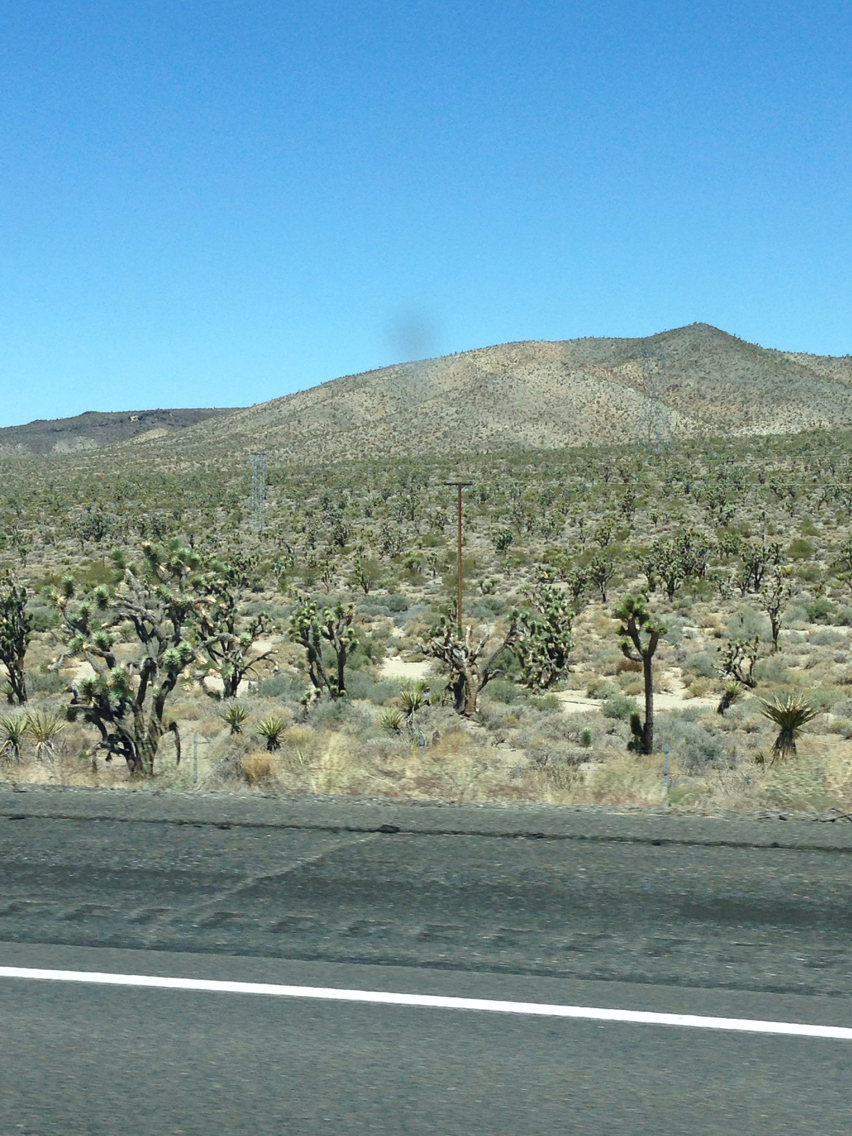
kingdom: Plantae
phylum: Tracheophyta
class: Liliopsida
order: Asparagales
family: Asparagaceae
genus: Yucca
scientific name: Yucca schidigera
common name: Mojave yucca
